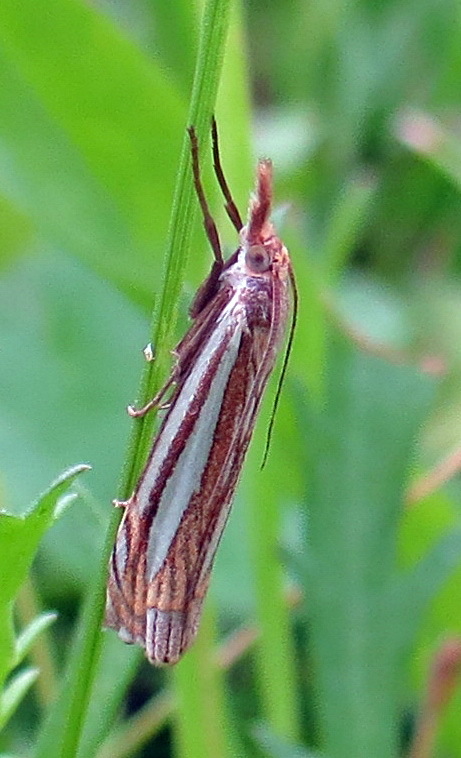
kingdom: Animalia
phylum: Arthropoda
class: Insecta
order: Lepidoptera
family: Crambidae
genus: Crambus
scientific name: Crambus laqueatellus
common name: Eastern grass-veneer
